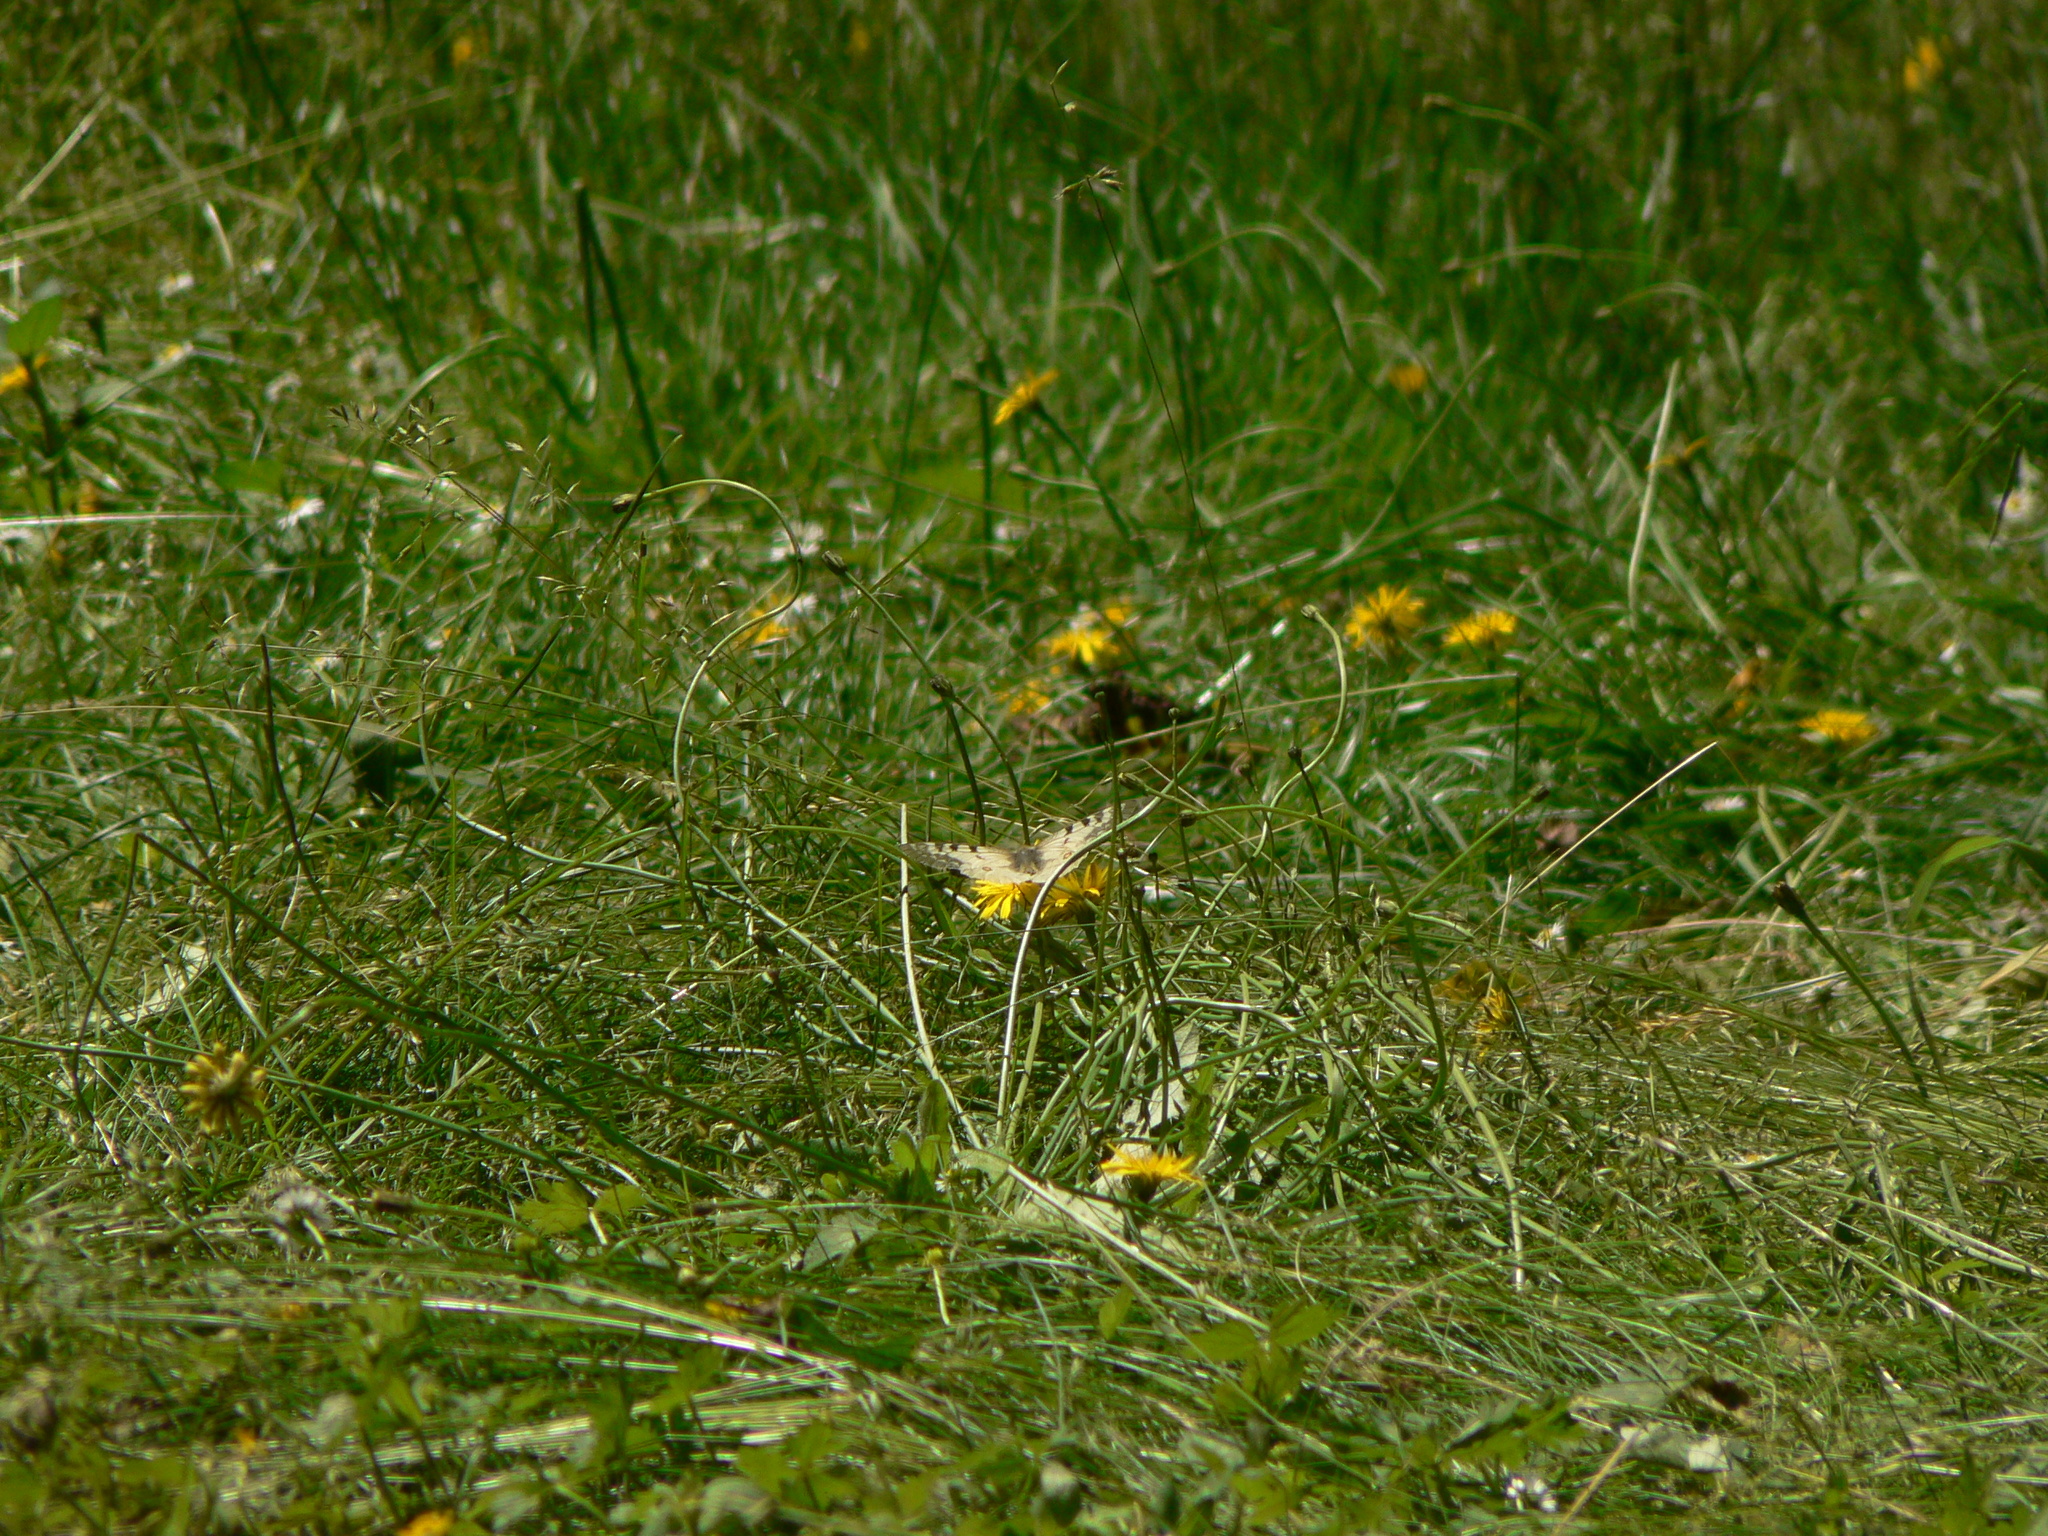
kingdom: Animalia
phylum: Arthropoda
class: Insecta
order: Lepidoptera
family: Papilionidae
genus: Parnassius
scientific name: Parnassius clodius
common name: American apollo
